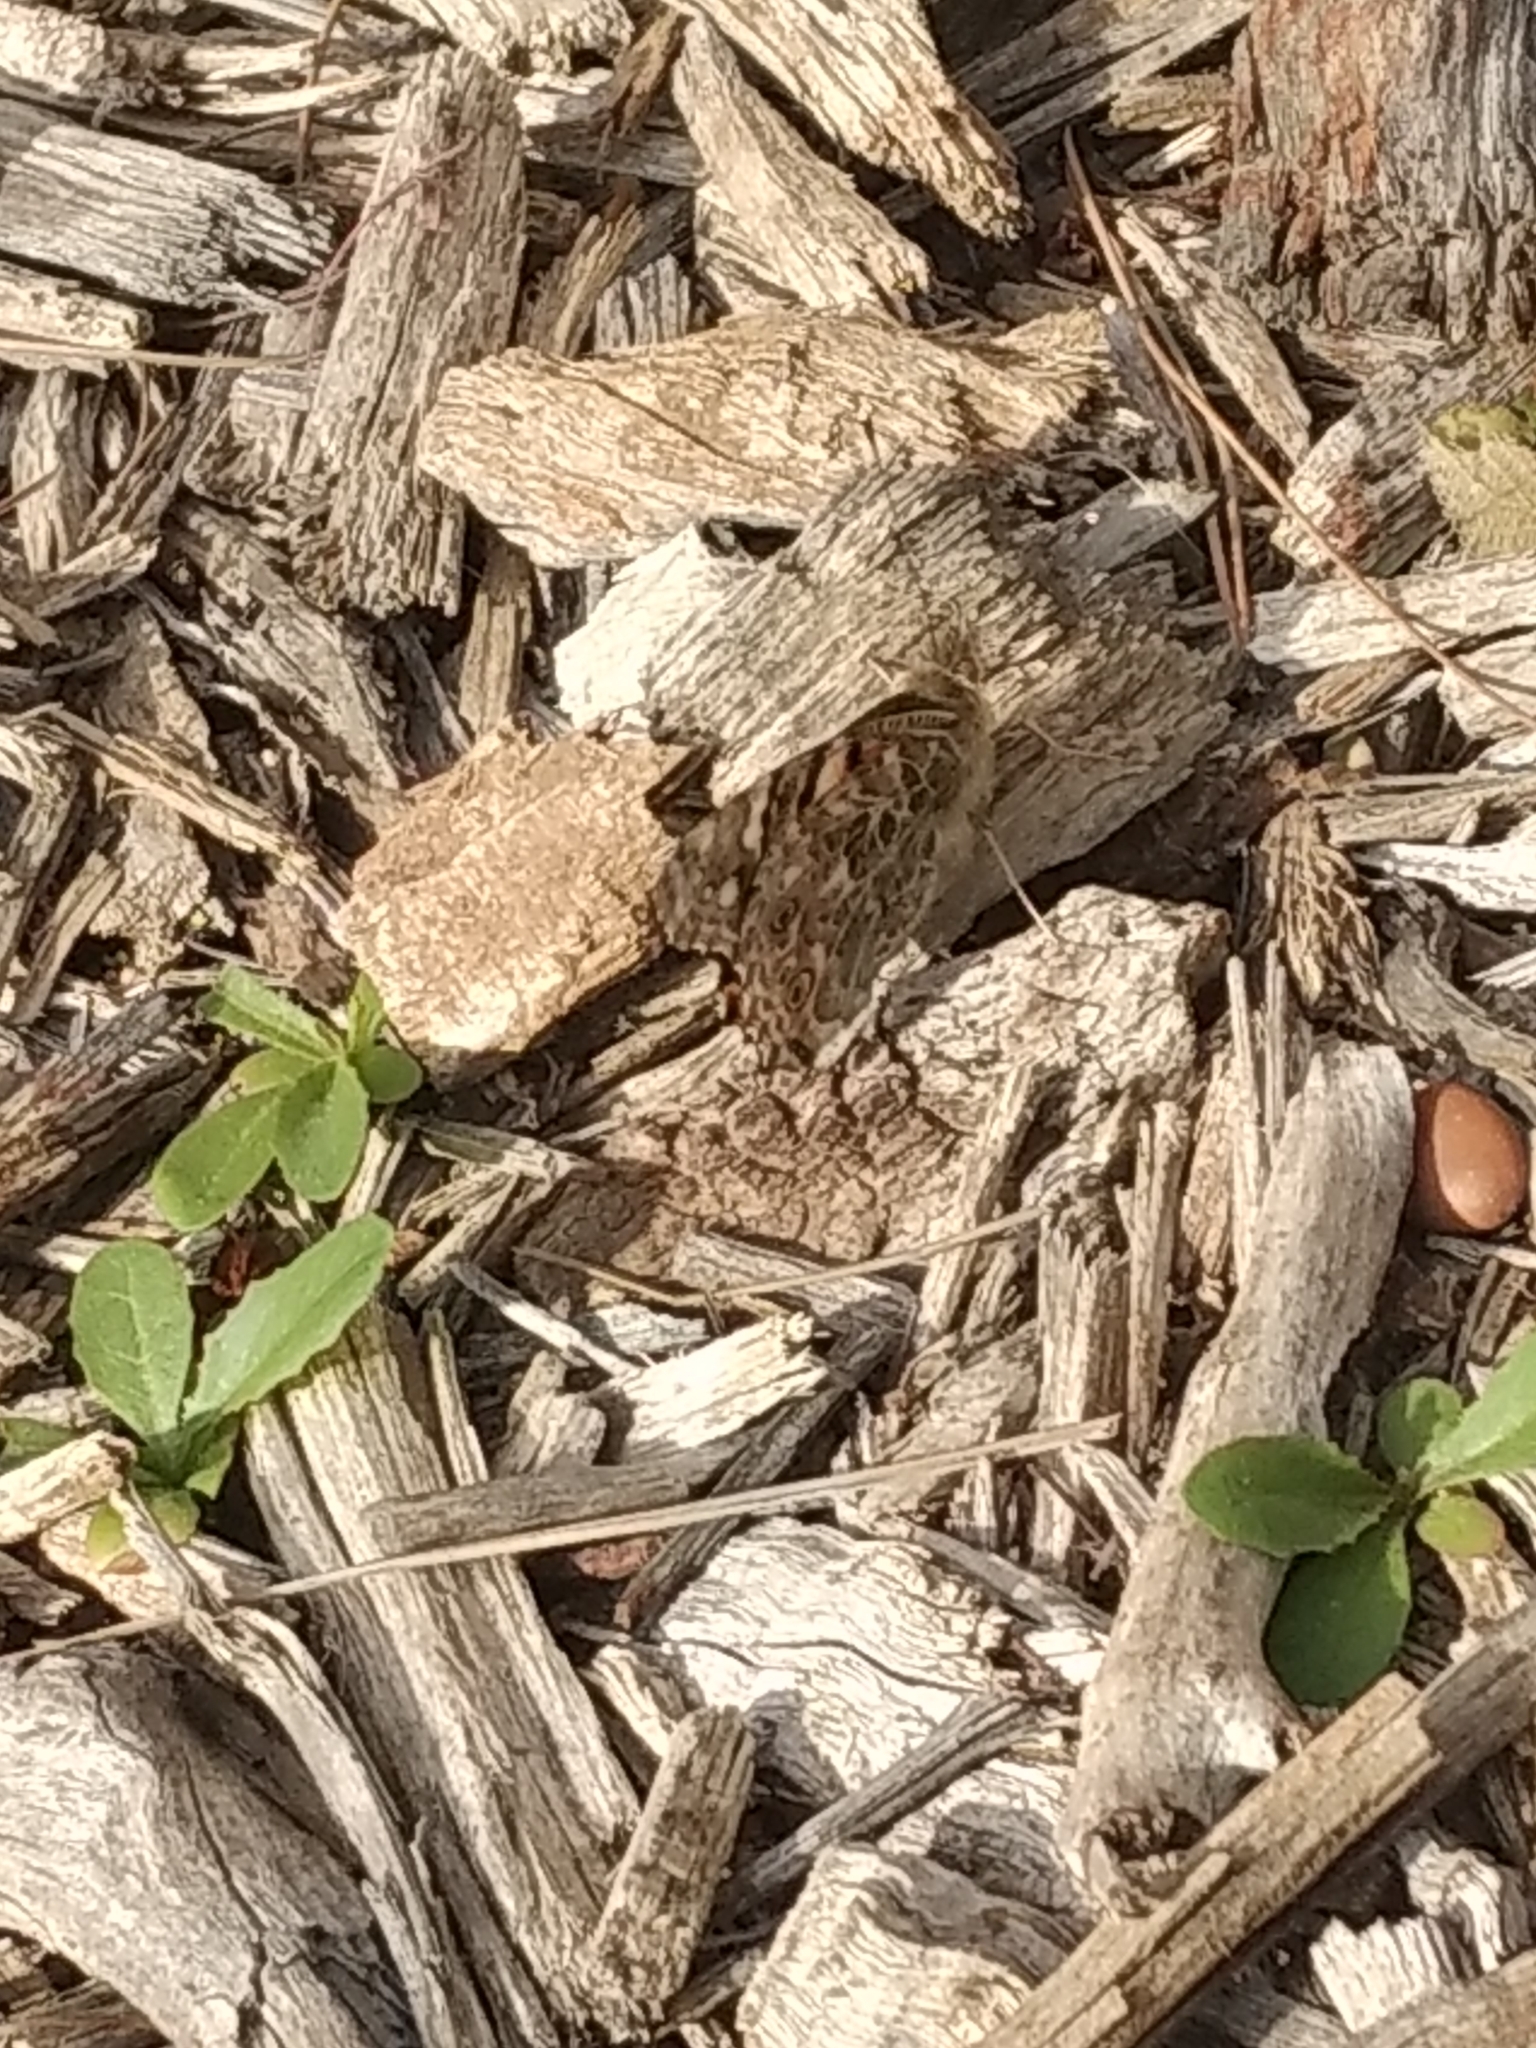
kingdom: Animalia
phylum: Arthropoda
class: Insecta
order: Lepidoptera
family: Nymphalidae
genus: Vanessa
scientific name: Vanessa cardui
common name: Painted lady
